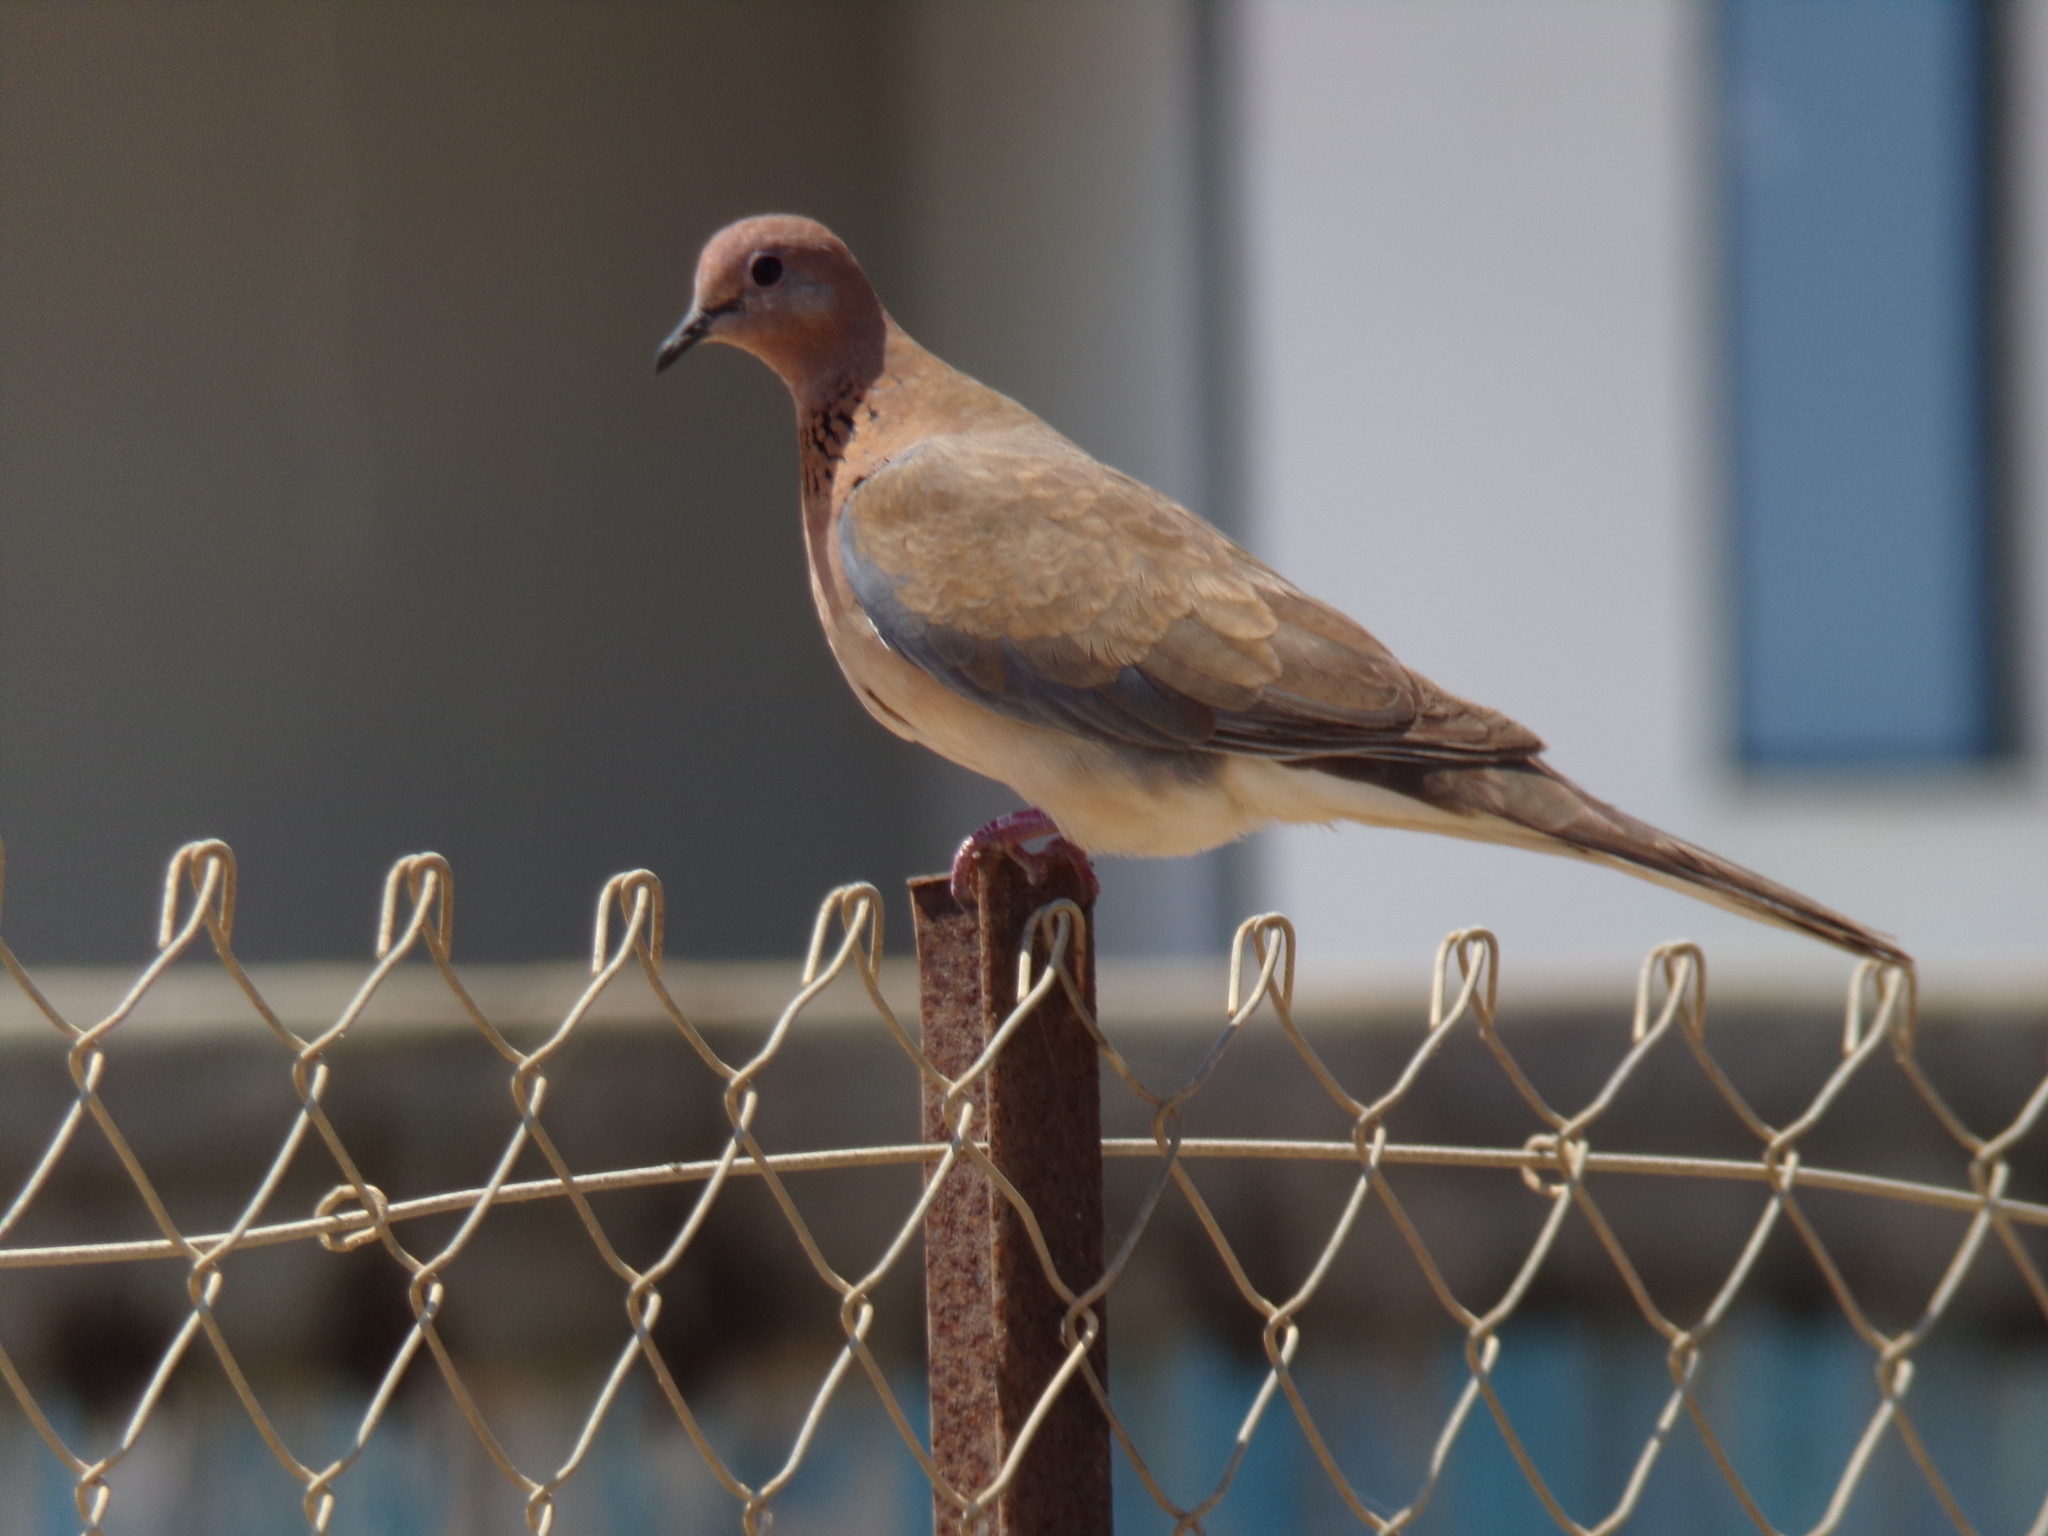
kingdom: Animalia
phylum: Chordata
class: Aves
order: Columbiformes
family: Columbidae
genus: Spilopelia
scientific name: Spilopelia senegalensis
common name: Laughing dove
